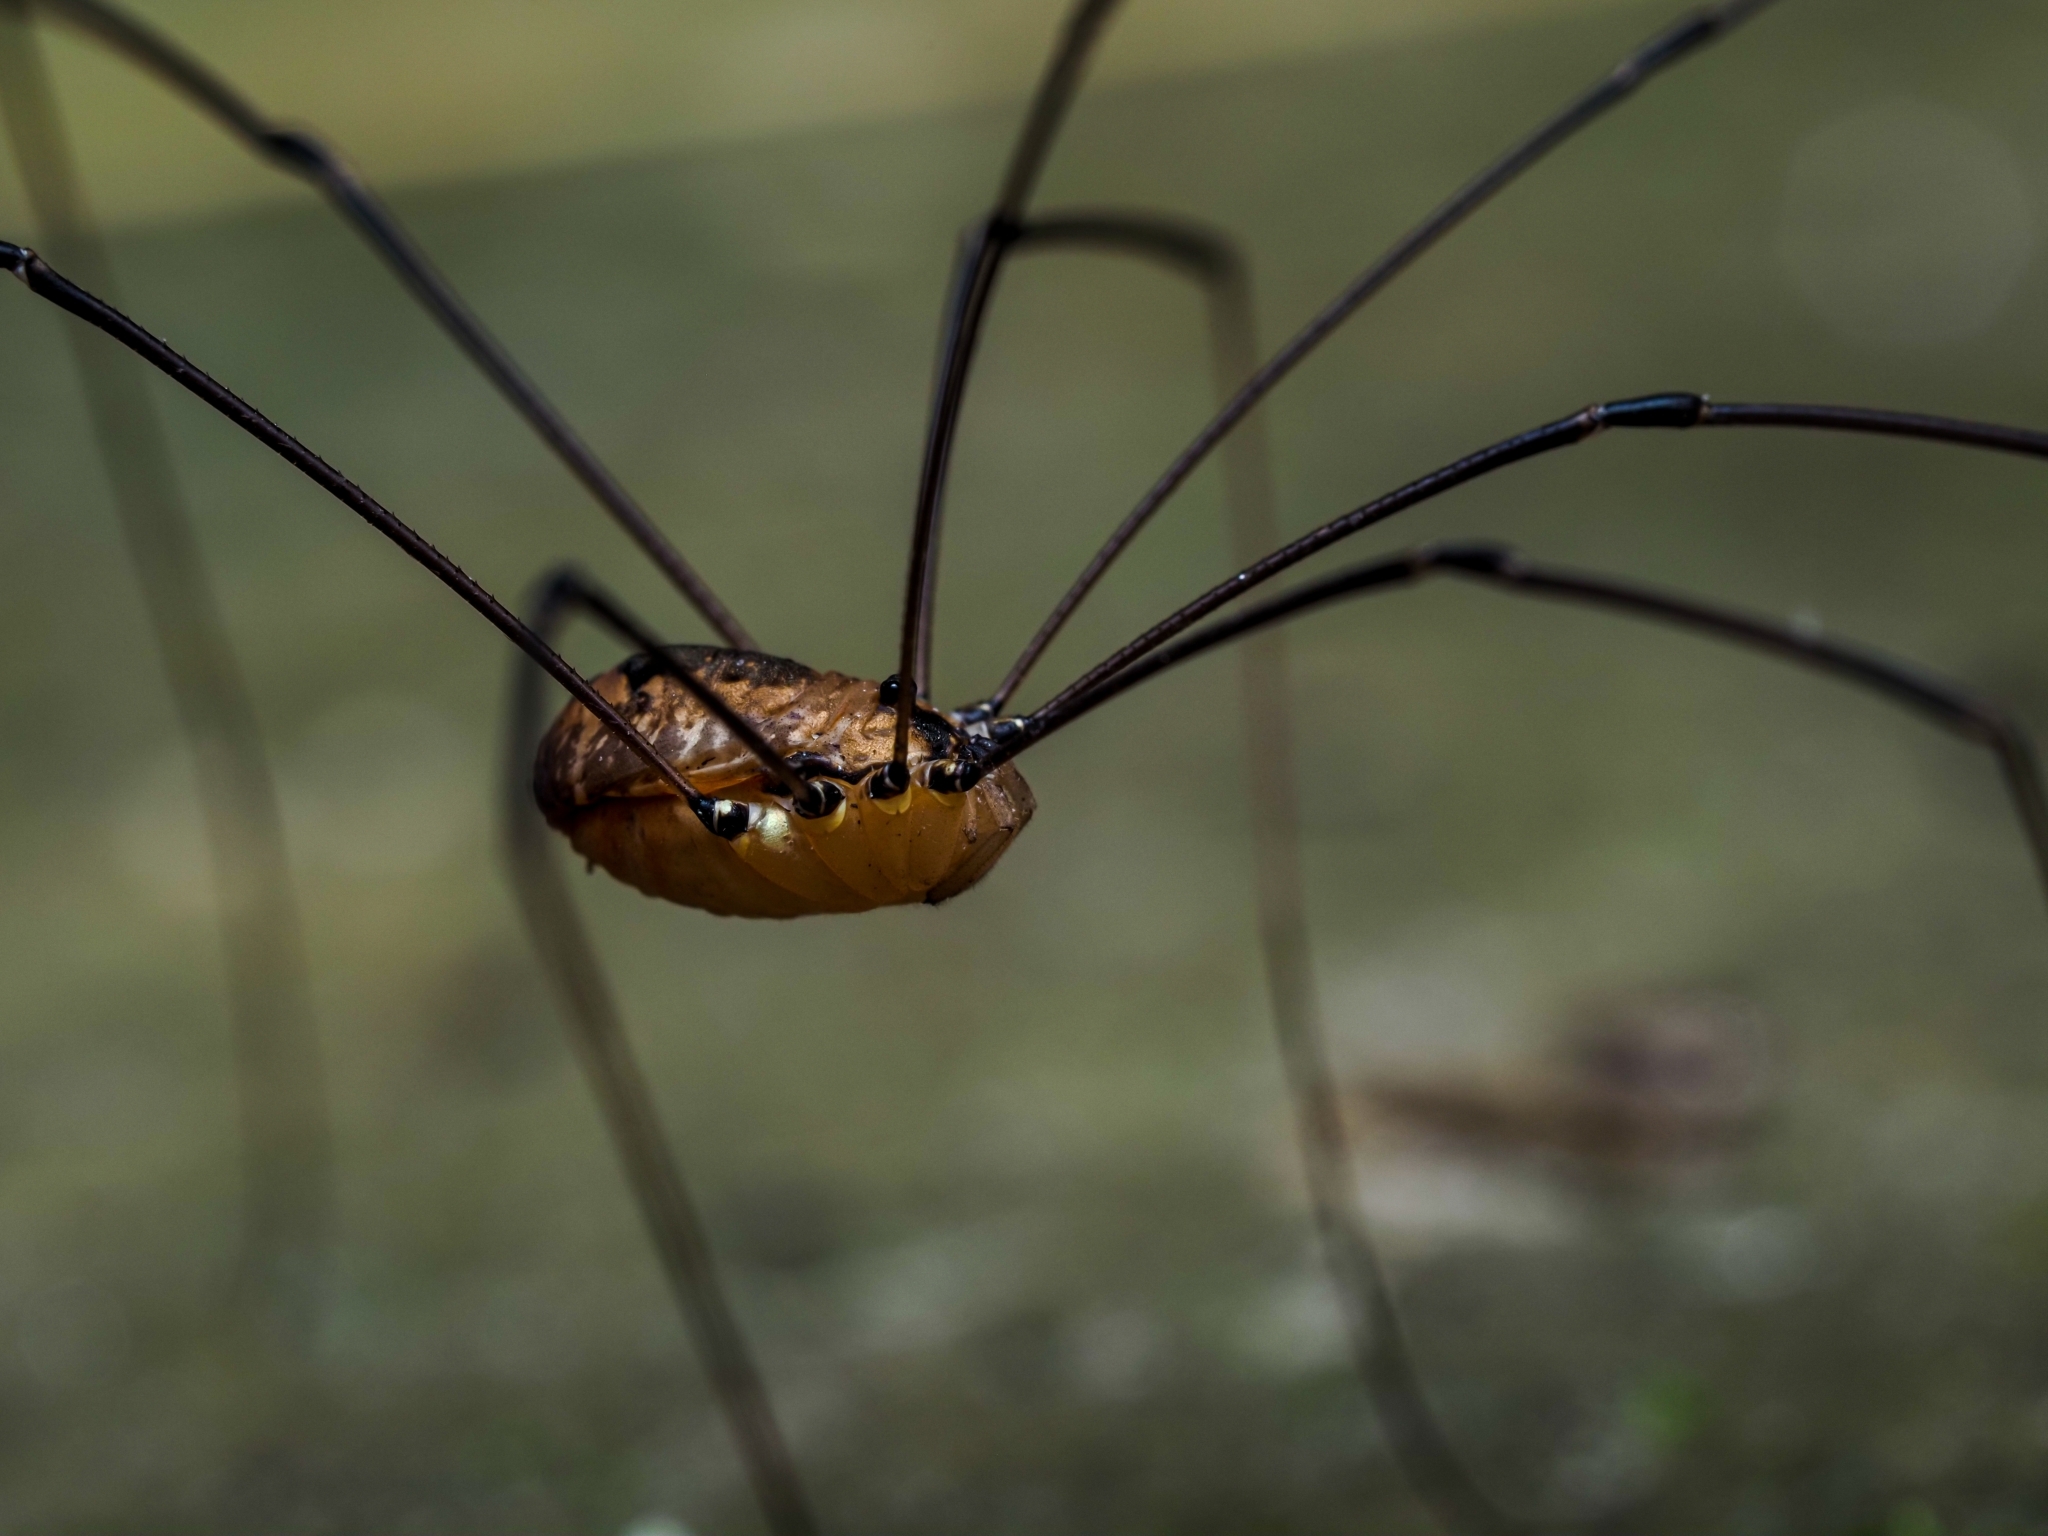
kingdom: Animalia
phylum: Arthropoda
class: Arachnida
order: Opiliones
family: Sclerosomatidae
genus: Leiobunum
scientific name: Leiobunum rotundum
